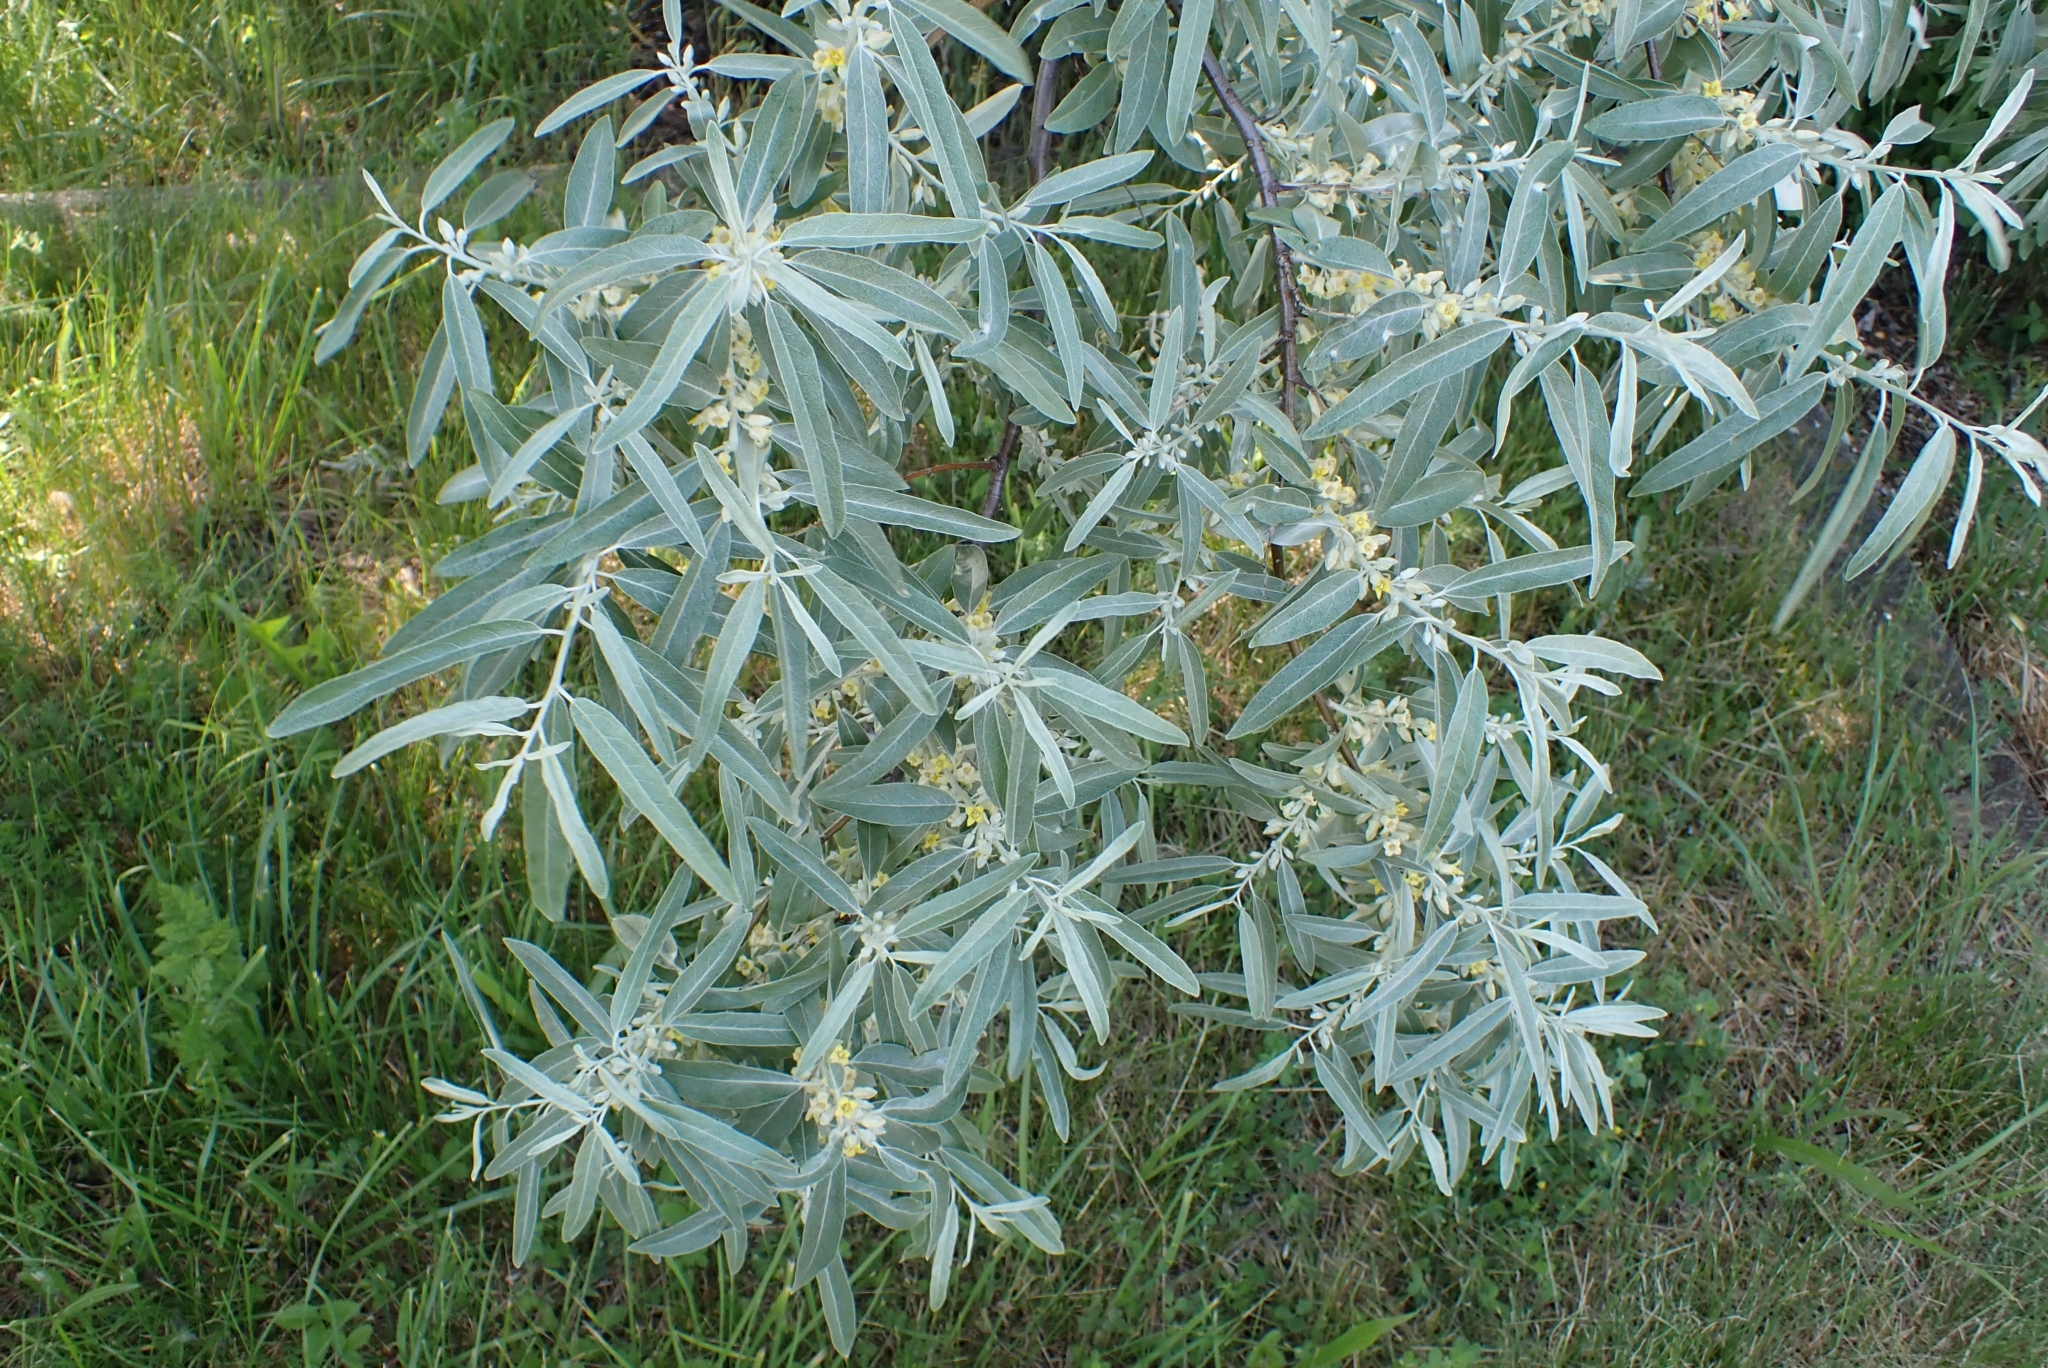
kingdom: Plantae
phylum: Tracheophyta
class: Magnoliopsida
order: Rosales
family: Elaeagnaceae
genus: Elaeagnus
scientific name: Elaeagnus angustifolia
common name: Russian olive
